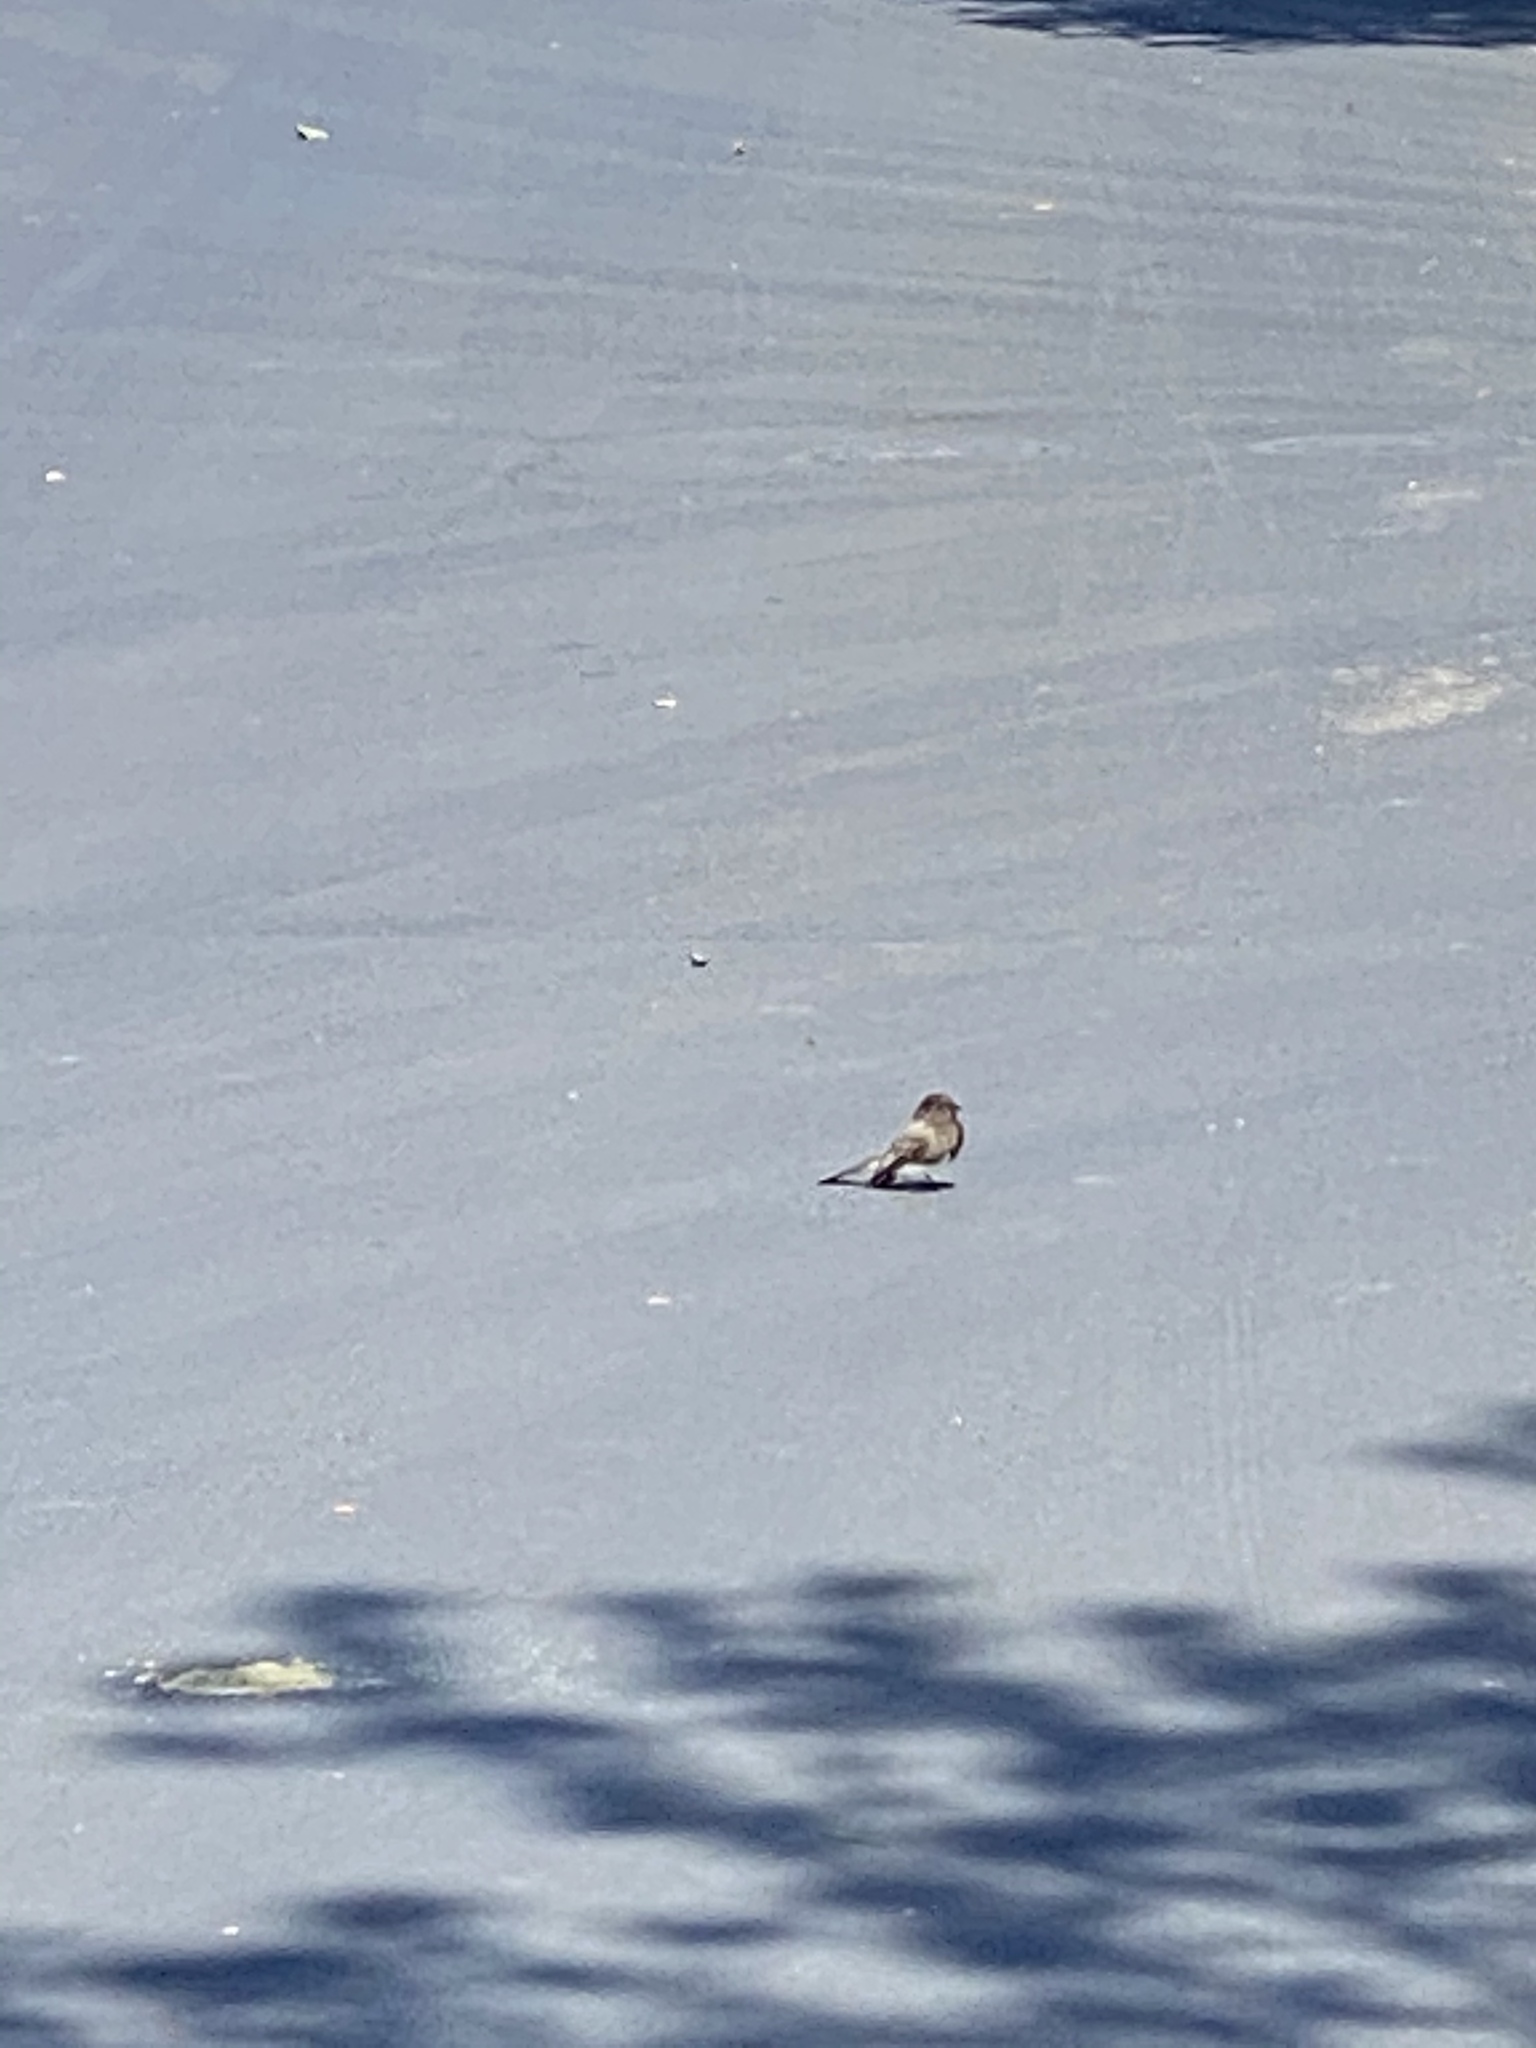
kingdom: Animalia
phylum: Chordata
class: Aves
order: Passeriformes
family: Tyrannidae
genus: Sayornis
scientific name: Sayornis nigricans
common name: Black phoebe
